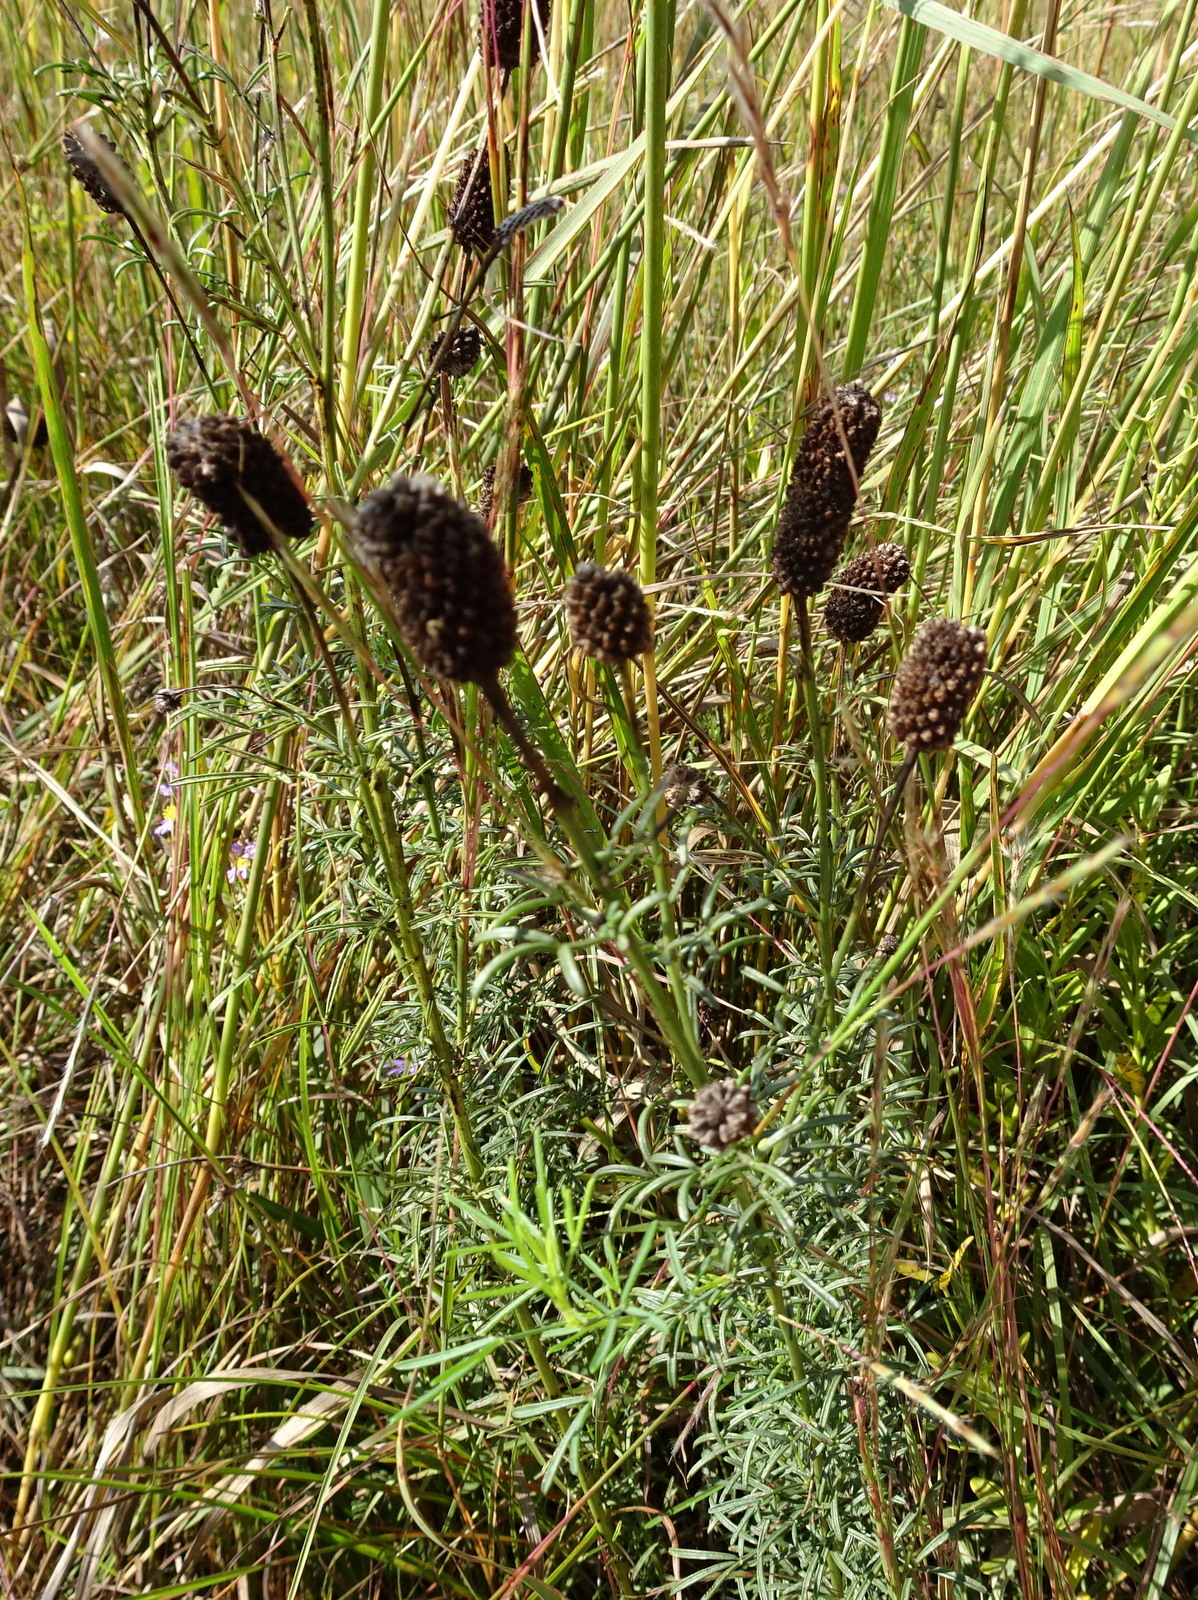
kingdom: Plantae
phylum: Tracheophyta
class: Magnoliopsida
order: Fabales
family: Fabaceae
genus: Dalea
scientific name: Dalea purpurea
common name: Purple prairie-clover
